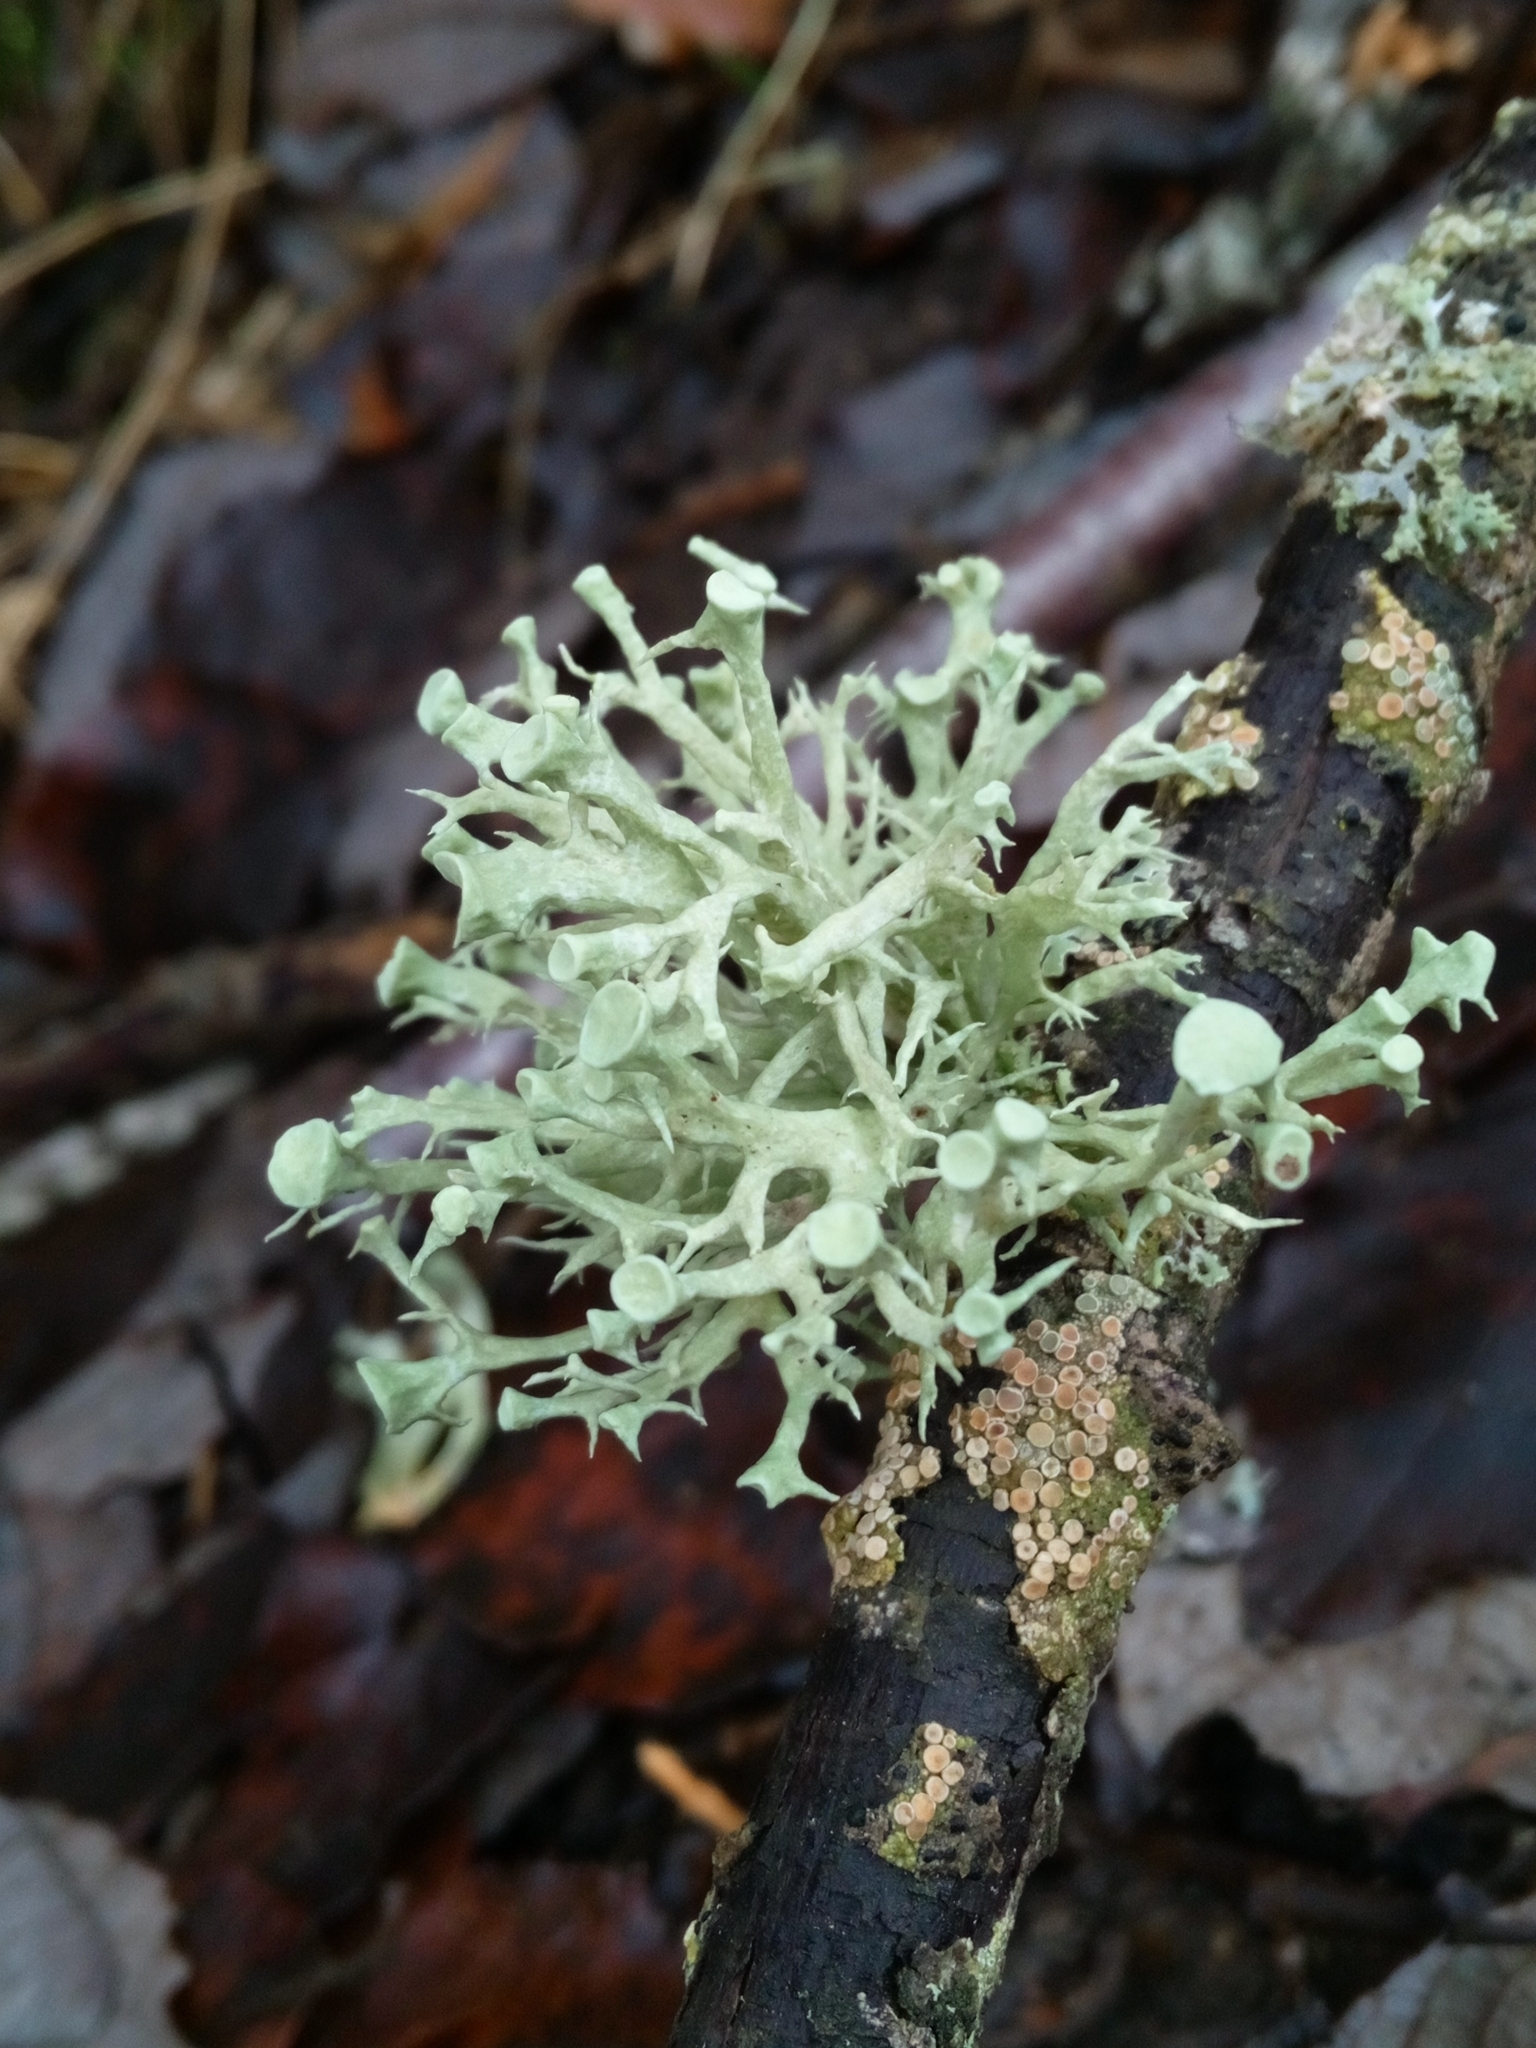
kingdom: Fungi
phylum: Ascomycota
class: Lecanoromycetes
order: Lecanorales
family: Ramalinaceae
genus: Ramalina
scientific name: Ramalina fastigiata
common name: Dotted ribbon lichen
